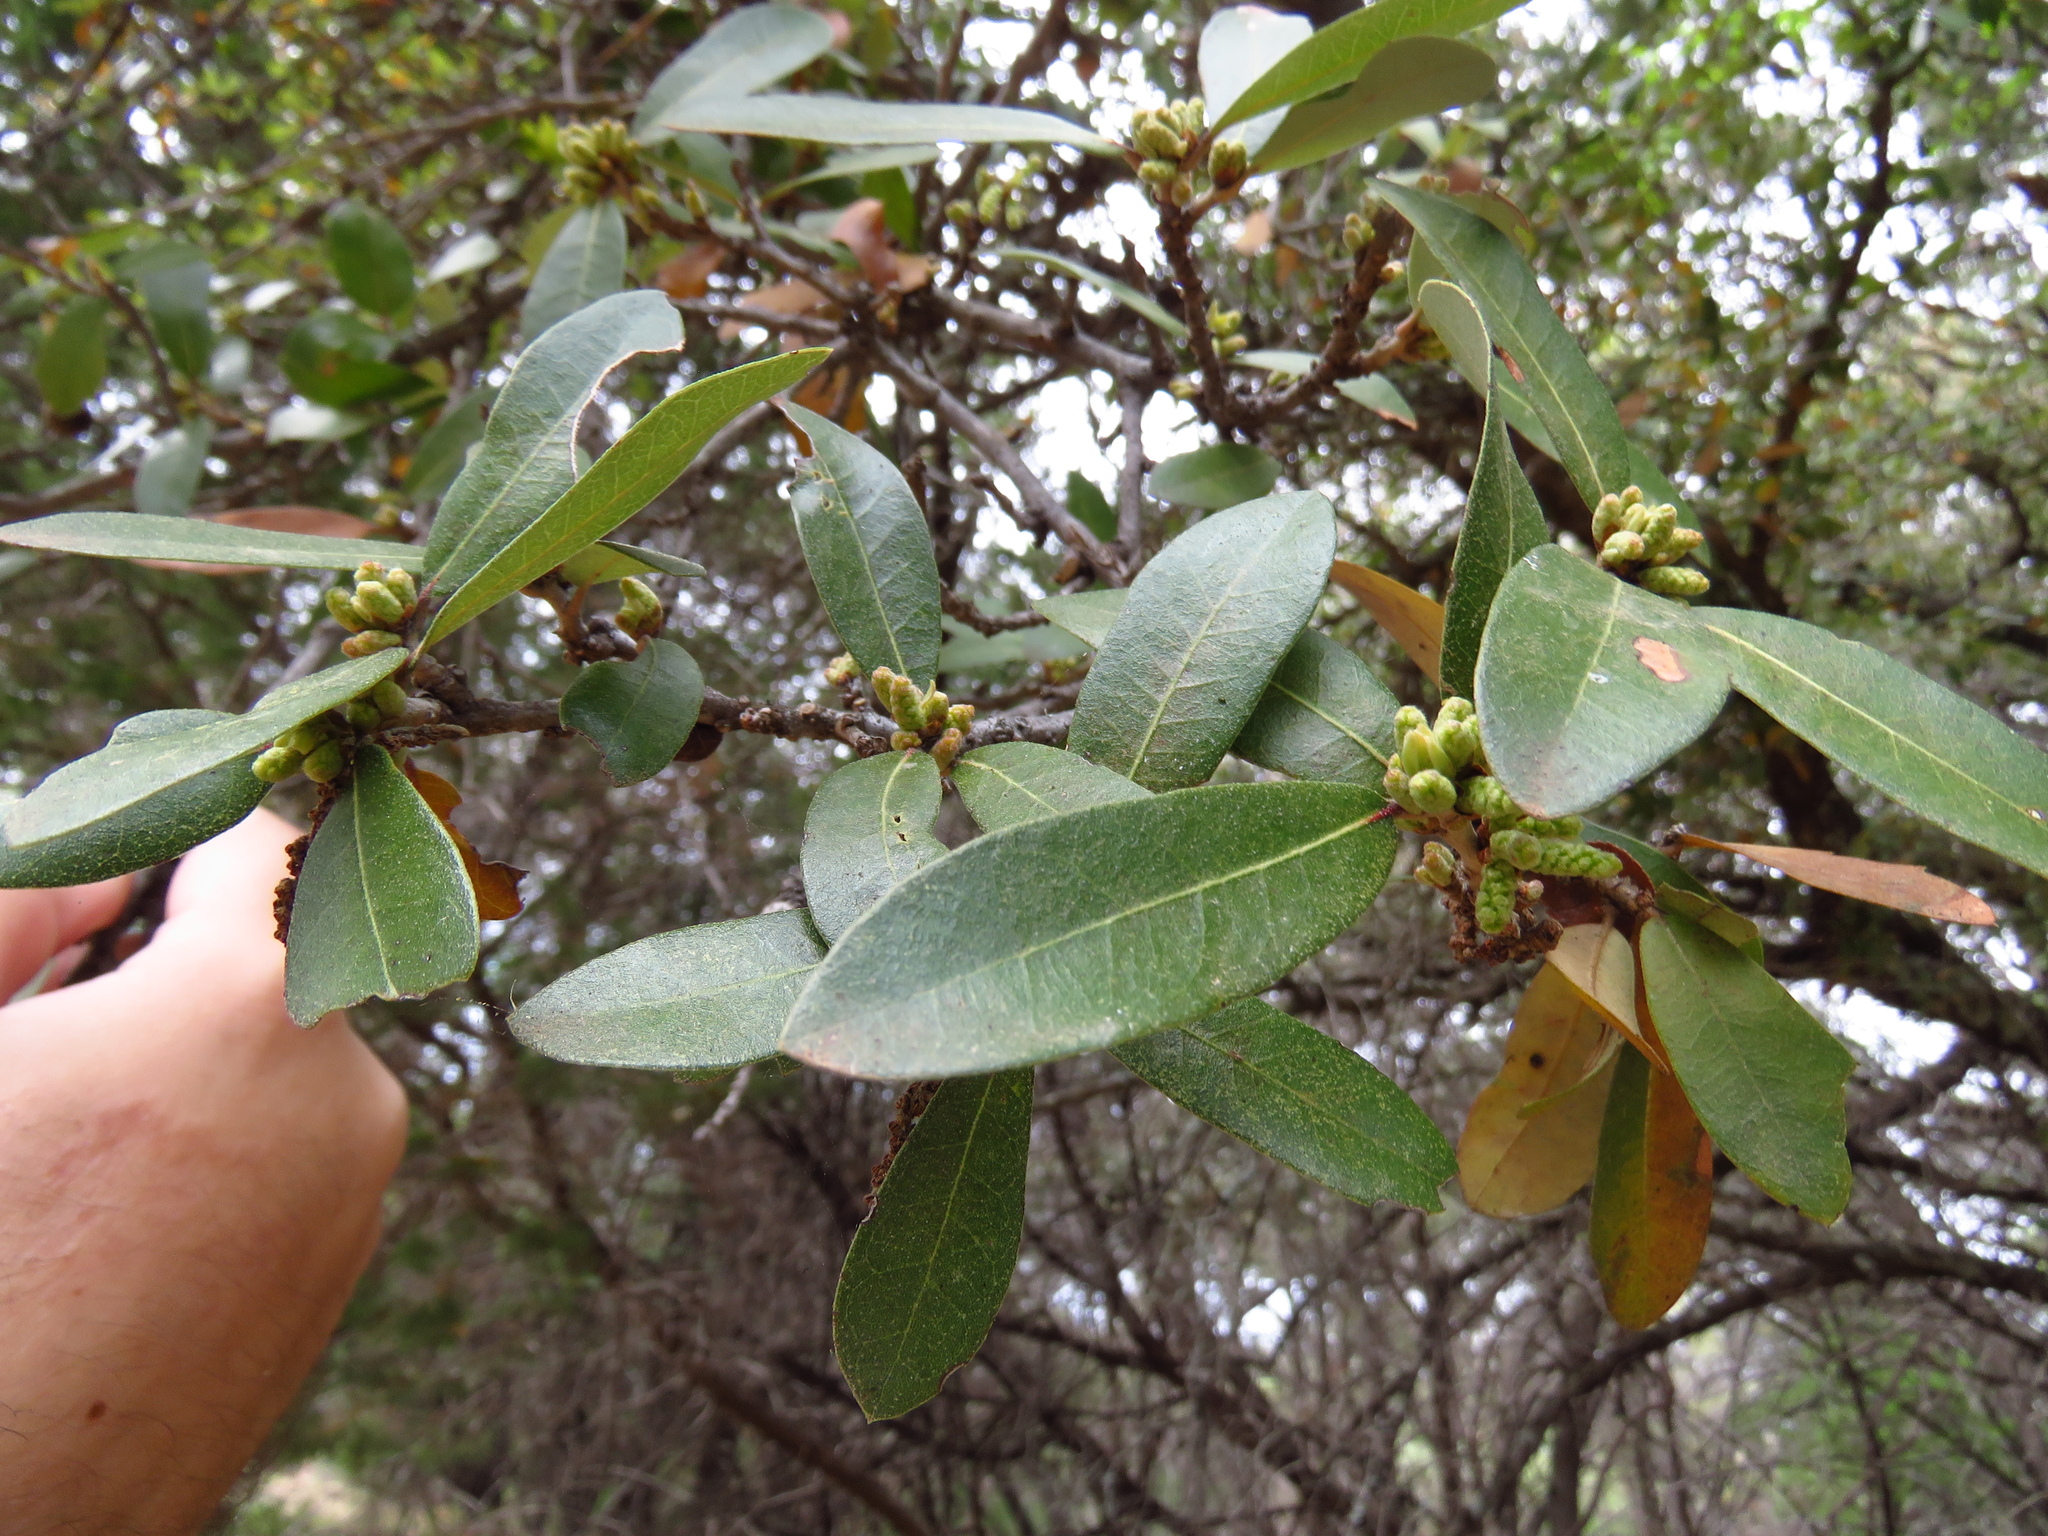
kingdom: Plantae
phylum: Tracheophyta
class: Magnoliopsida
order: Fagales
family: Fagaceae
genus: Quercus
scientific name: Quercus fusiformis
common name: Texas live oak
